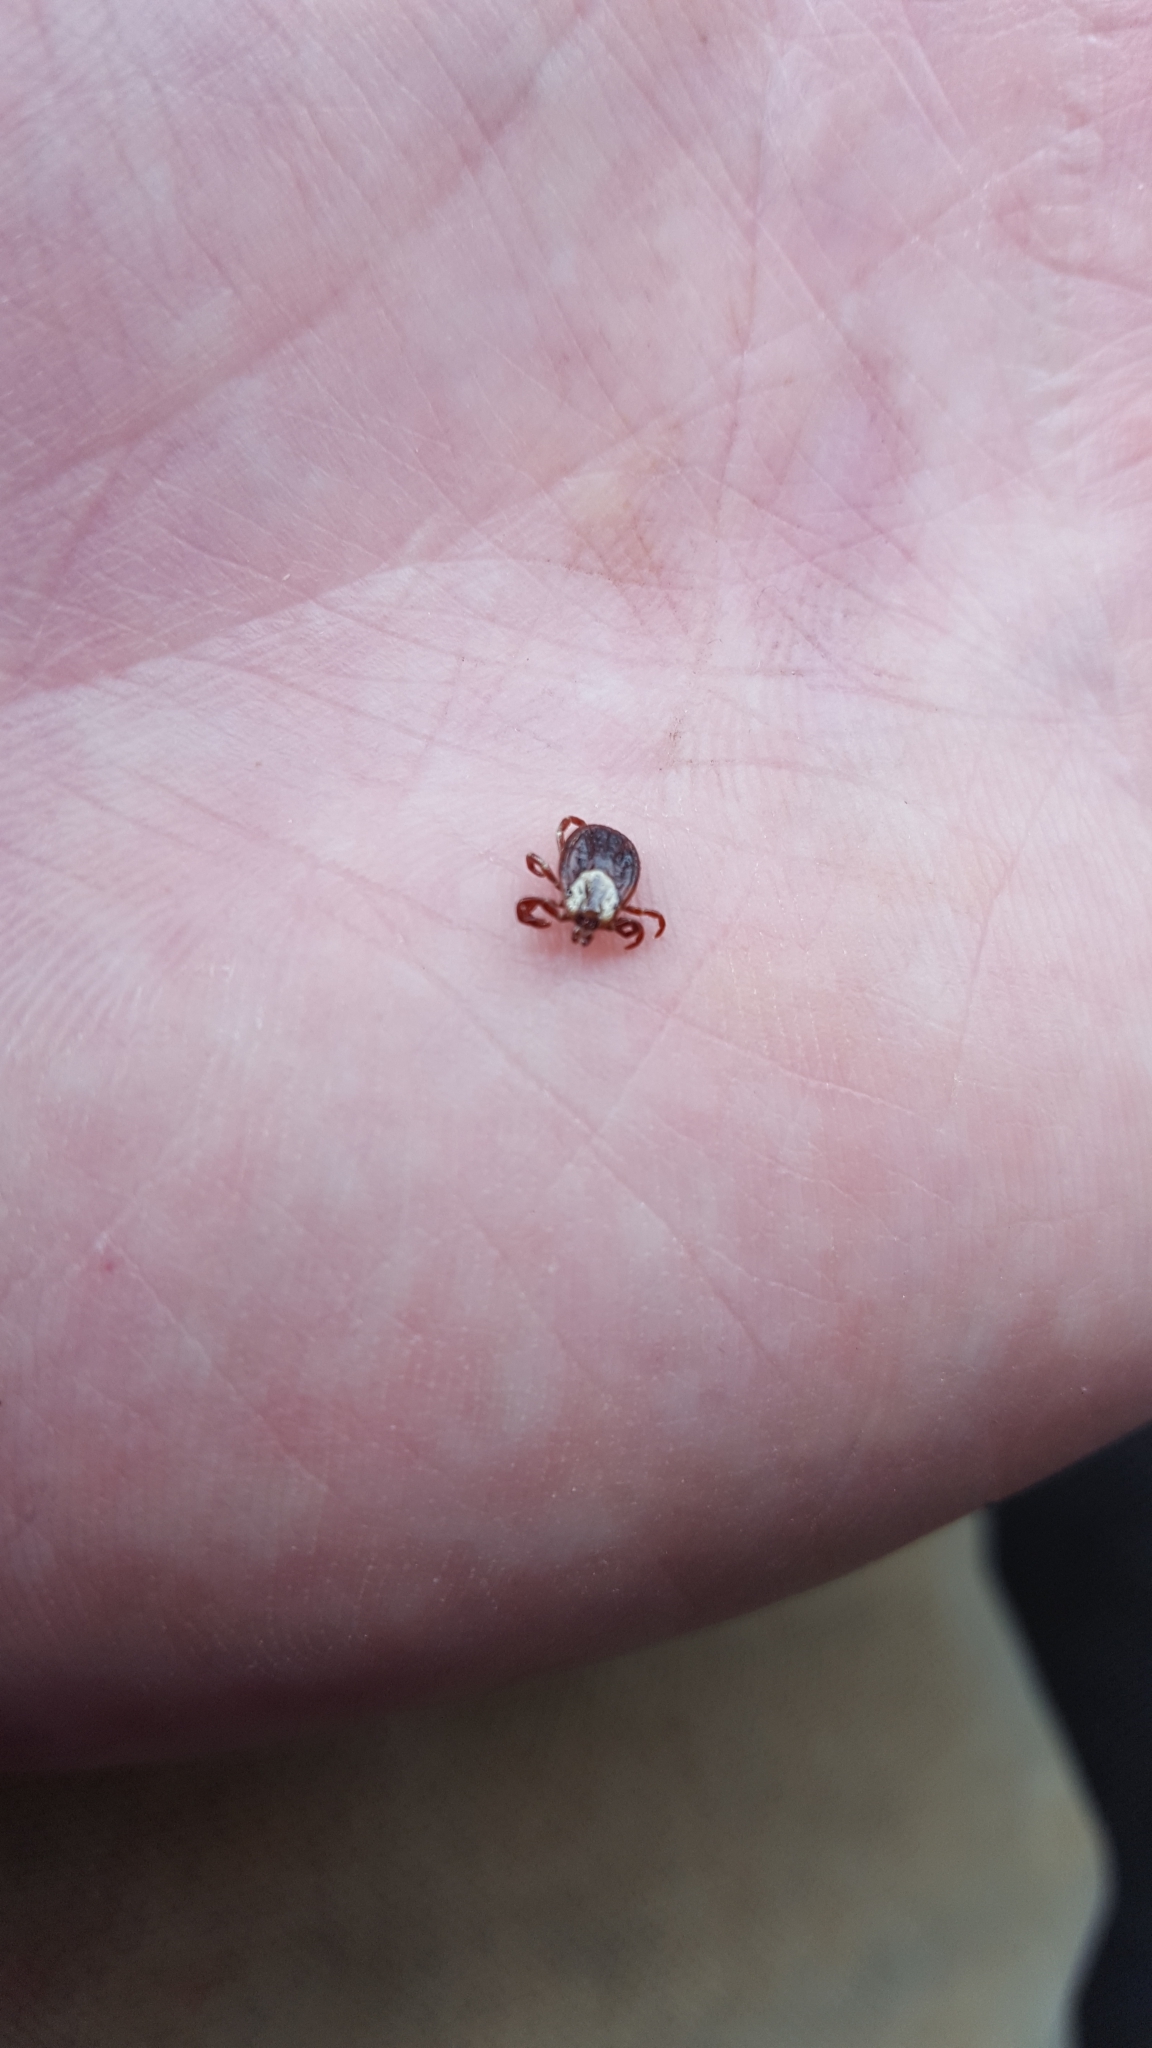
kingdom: Animalia
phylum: Arthropoda
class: Arachnida
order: Ixodida
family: Ixodidae
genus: Dermacentor
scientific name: Dermacentor variabilis
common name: American dog tick
